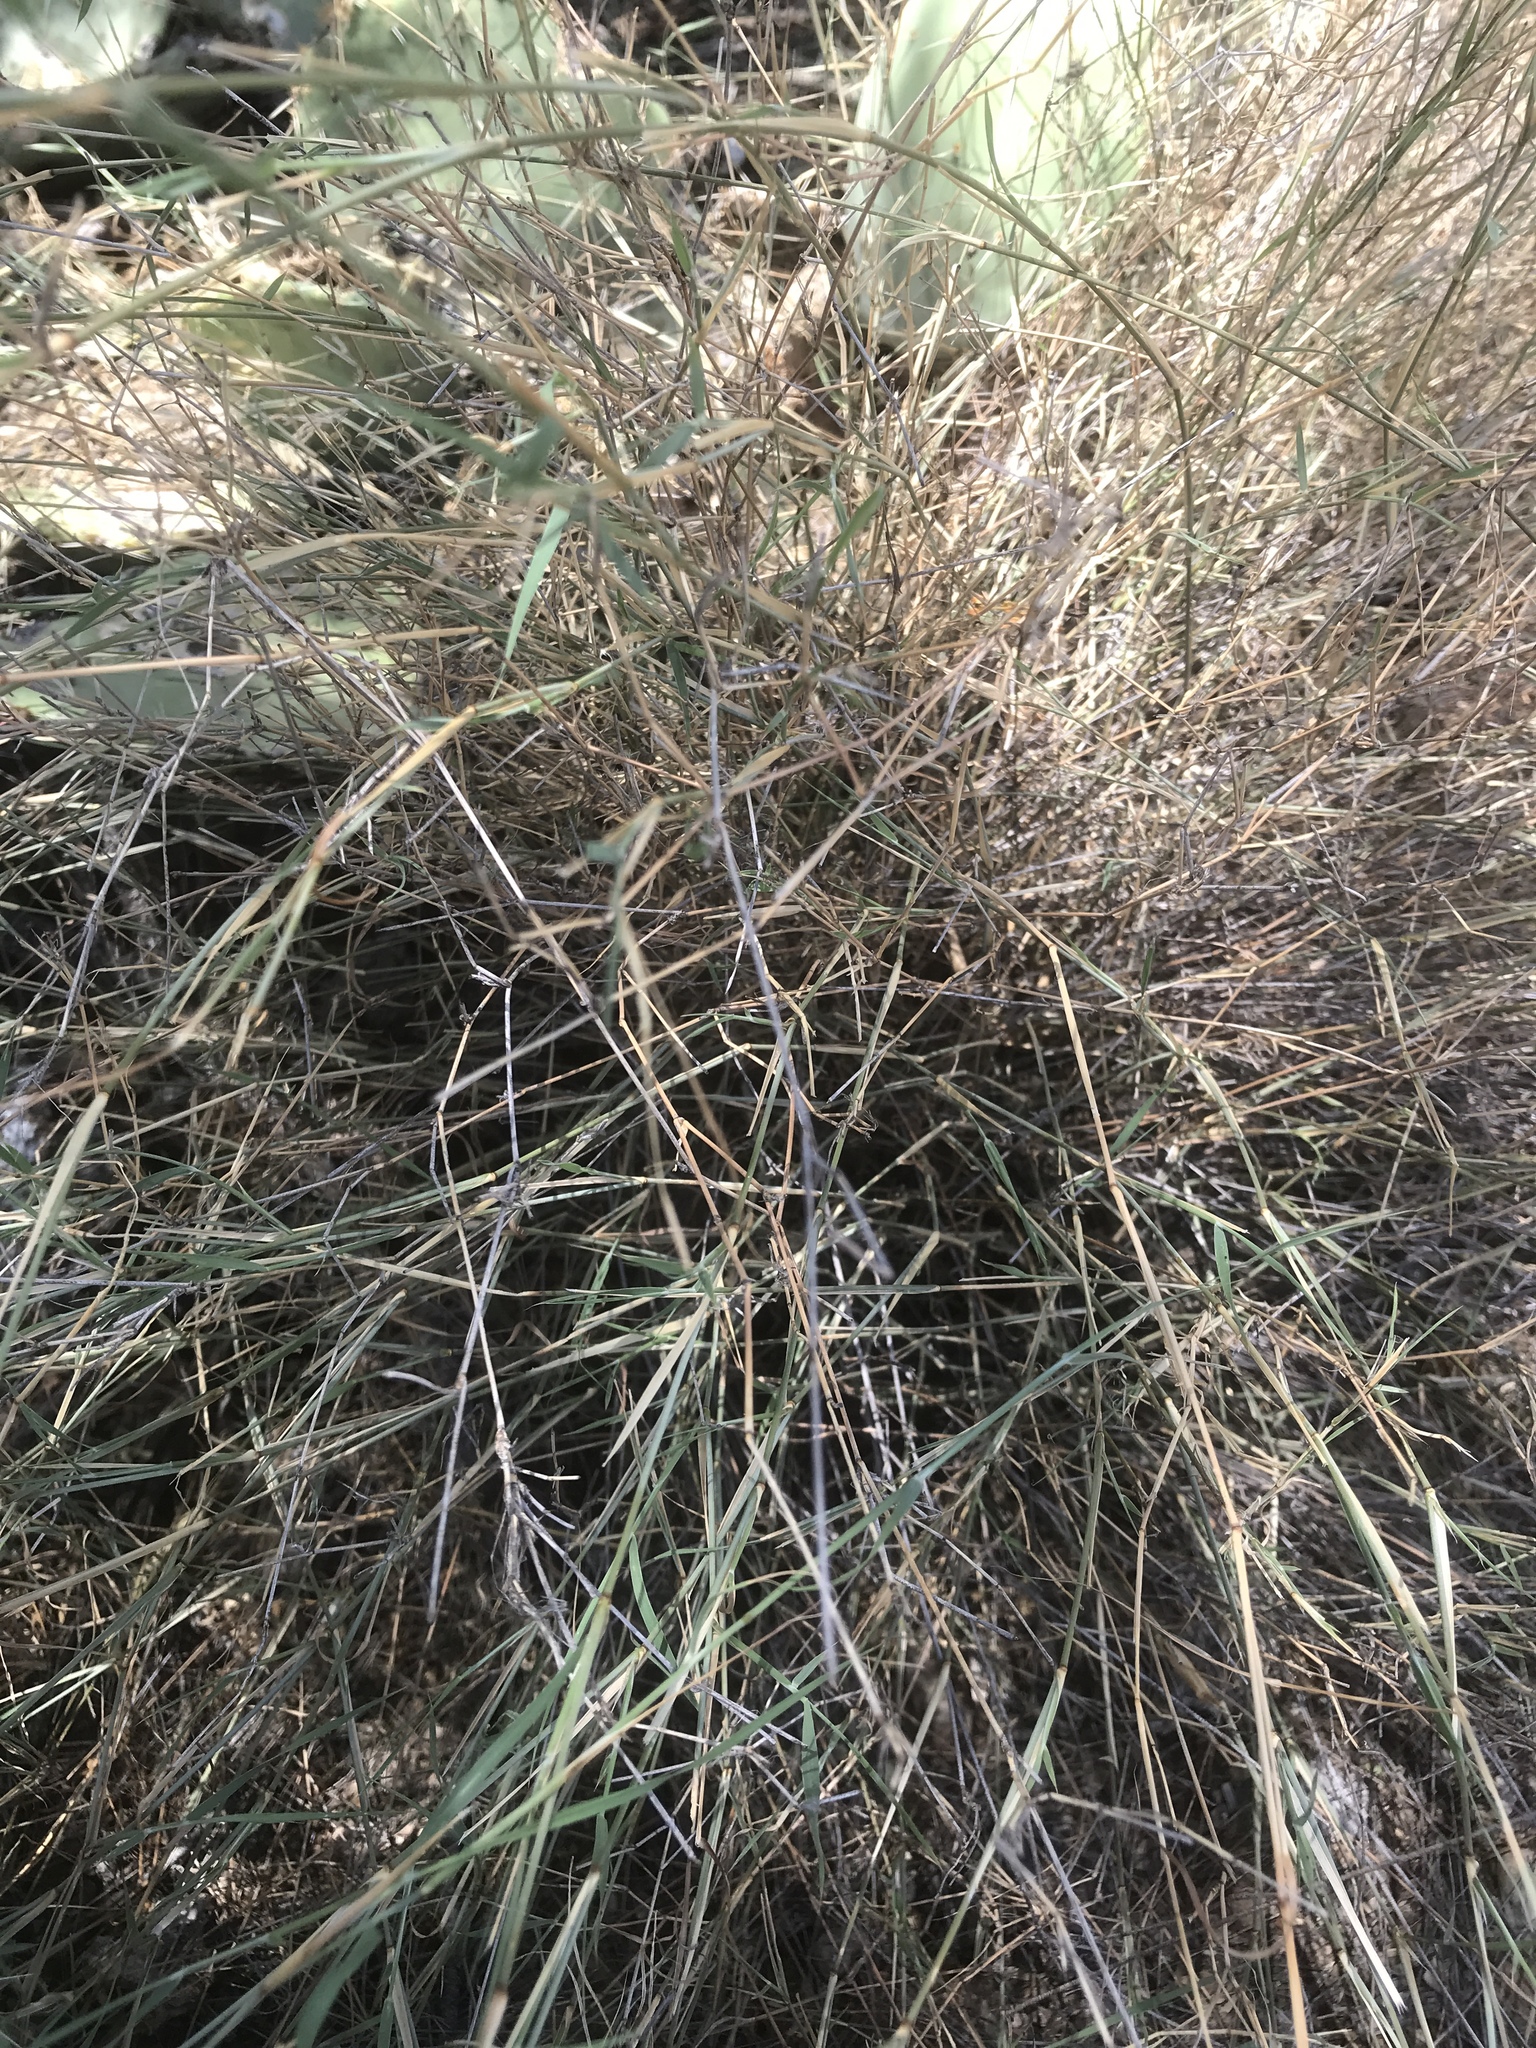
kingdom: Plantae
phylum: Tracheophyta
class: Liliopsida
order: Poales
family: Poaceae
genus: Muhlenbergia
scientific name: Muhlenbergia porteri
